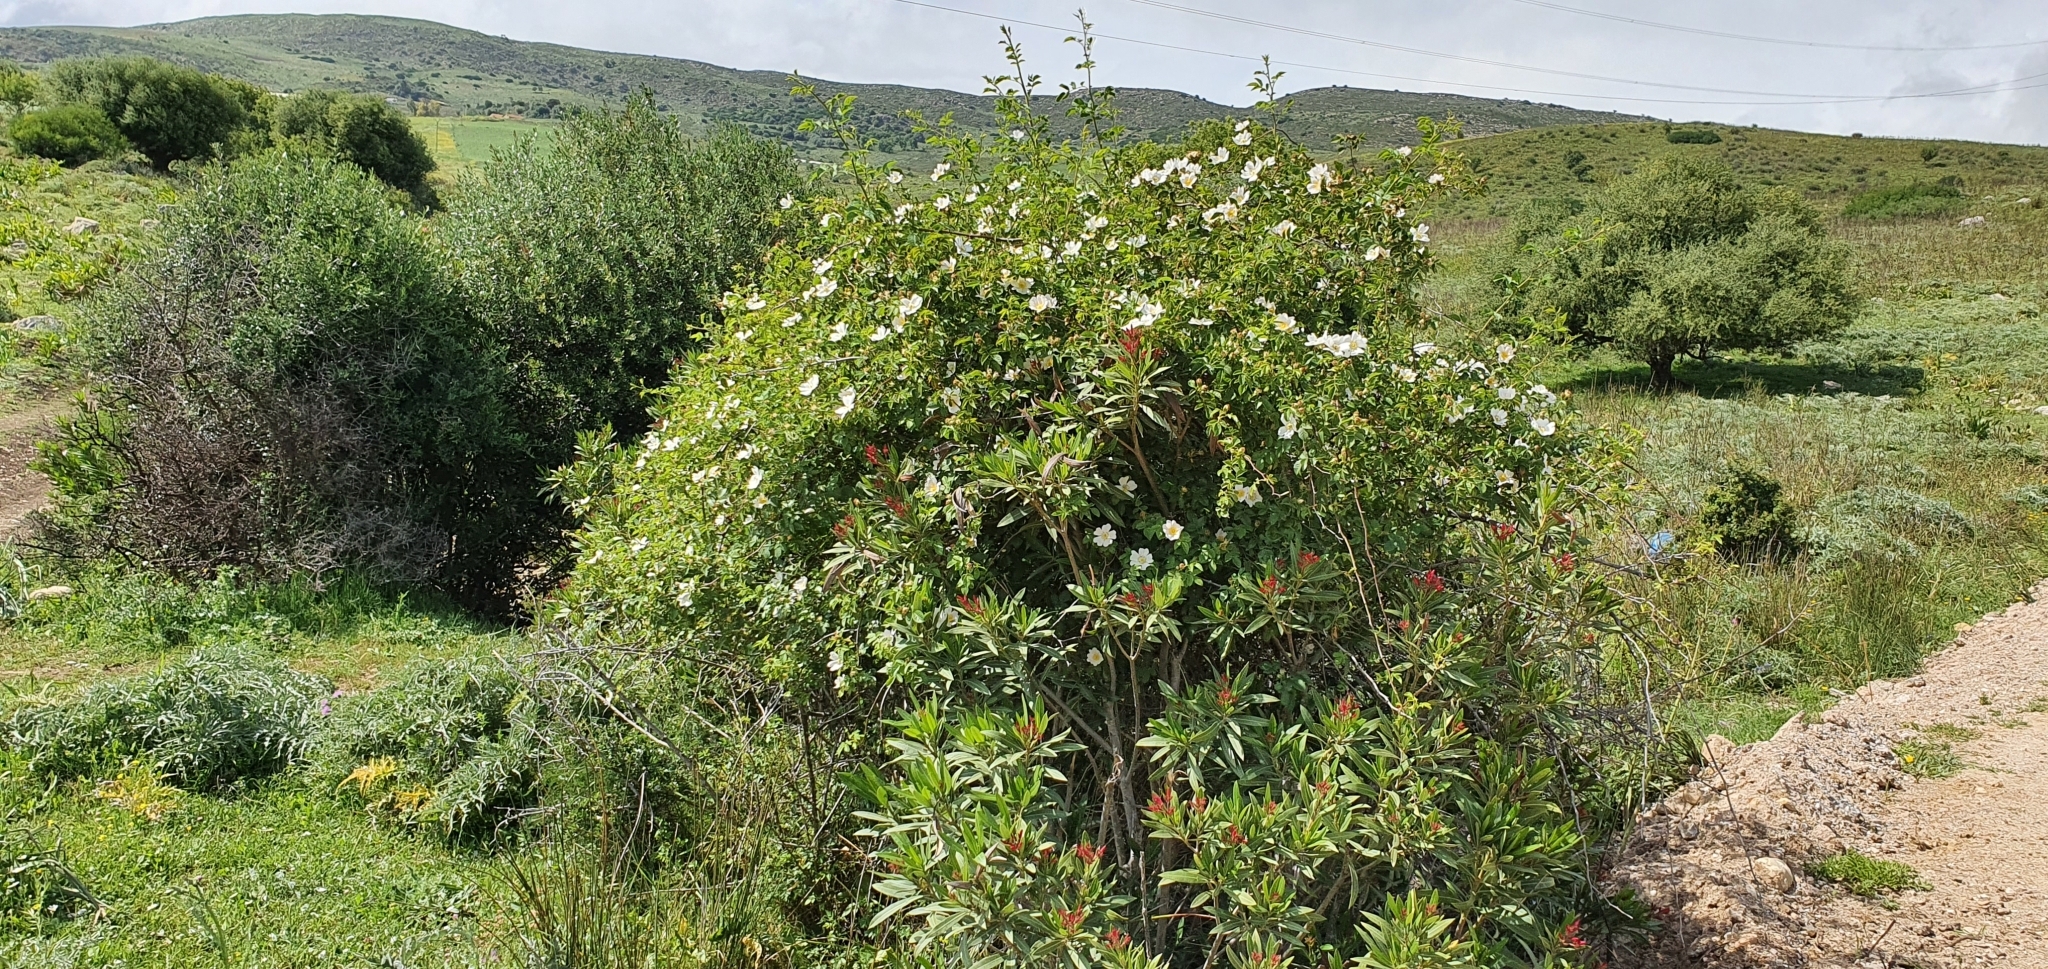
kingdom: Plantae
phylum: Tracheophyta
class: Magnoliopsida
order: Rosales
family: Rosaceae
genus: Rosa
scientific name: Rosa dumalis
